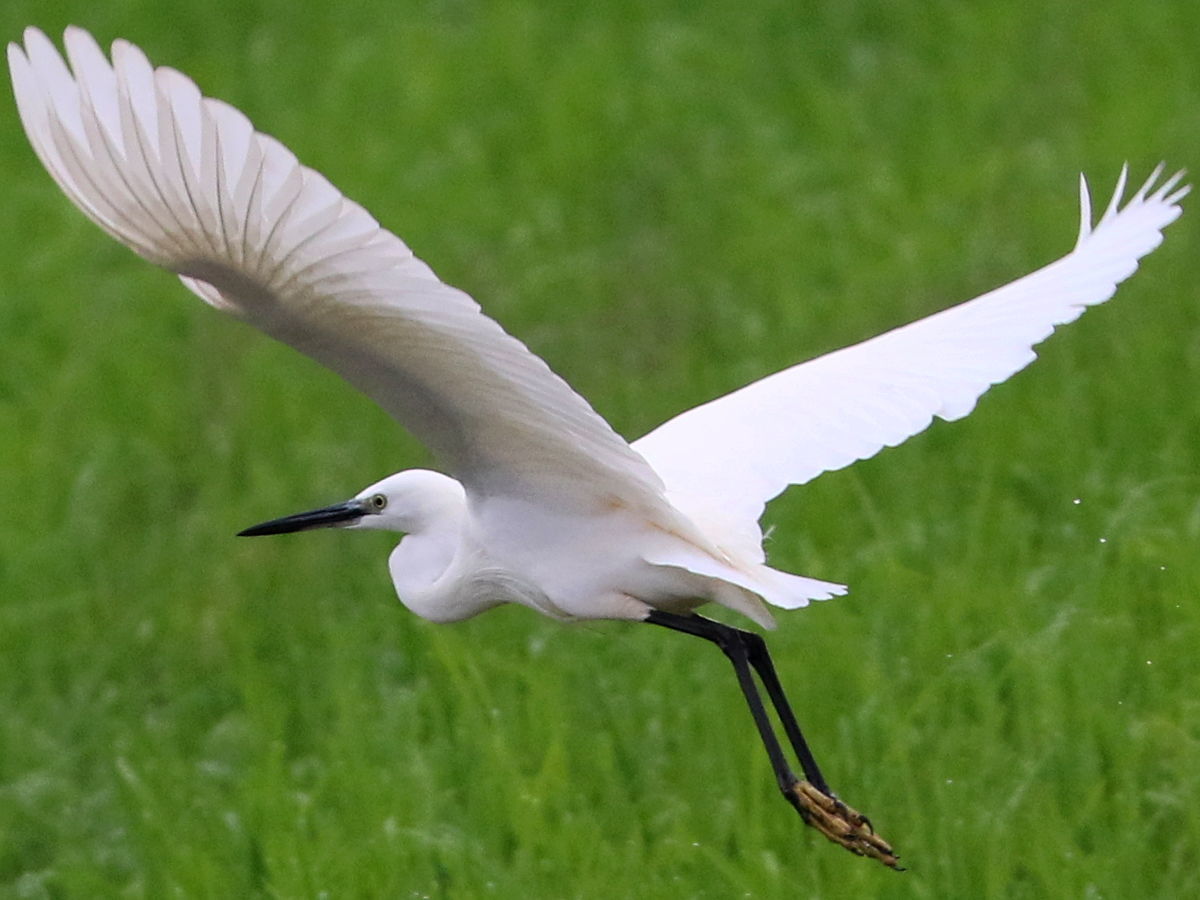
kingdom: Animalia
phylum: Chordata
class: Aves
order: Pelecaniformes
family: Ardeidae
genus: Egretta
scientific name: Egretta garzetta
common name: Little egret
